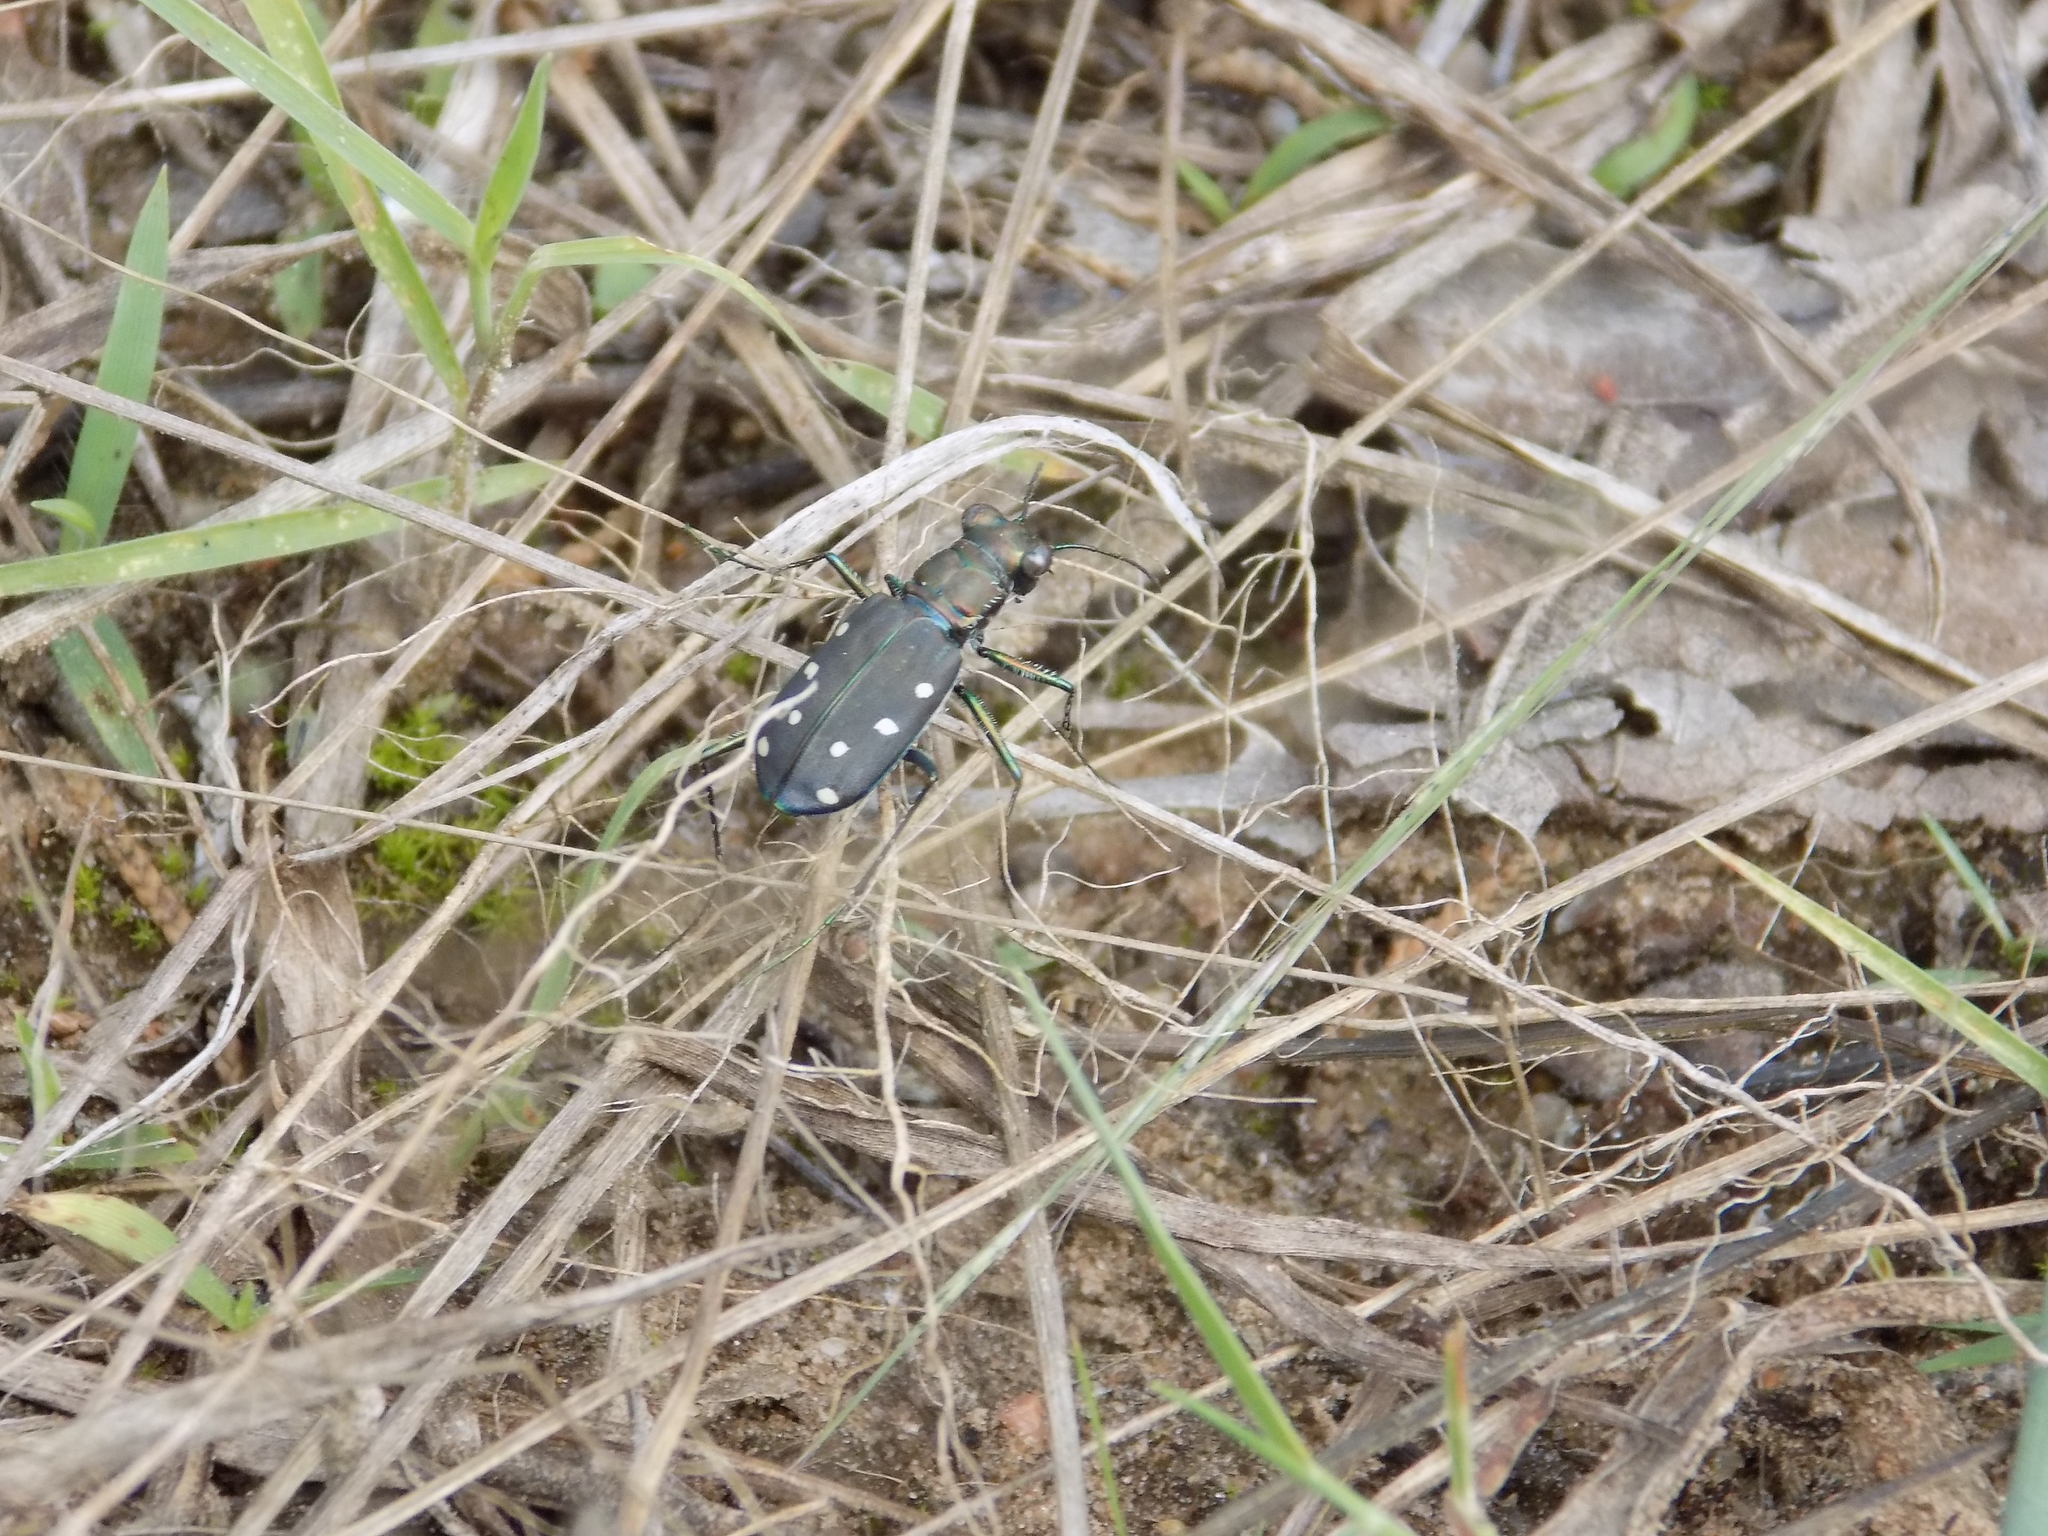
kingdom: Animalia
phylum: Arthropoda
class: Insecta
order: Coleoptera
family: Carabidae
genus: Cicindela
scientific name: Cicindela ocellata
